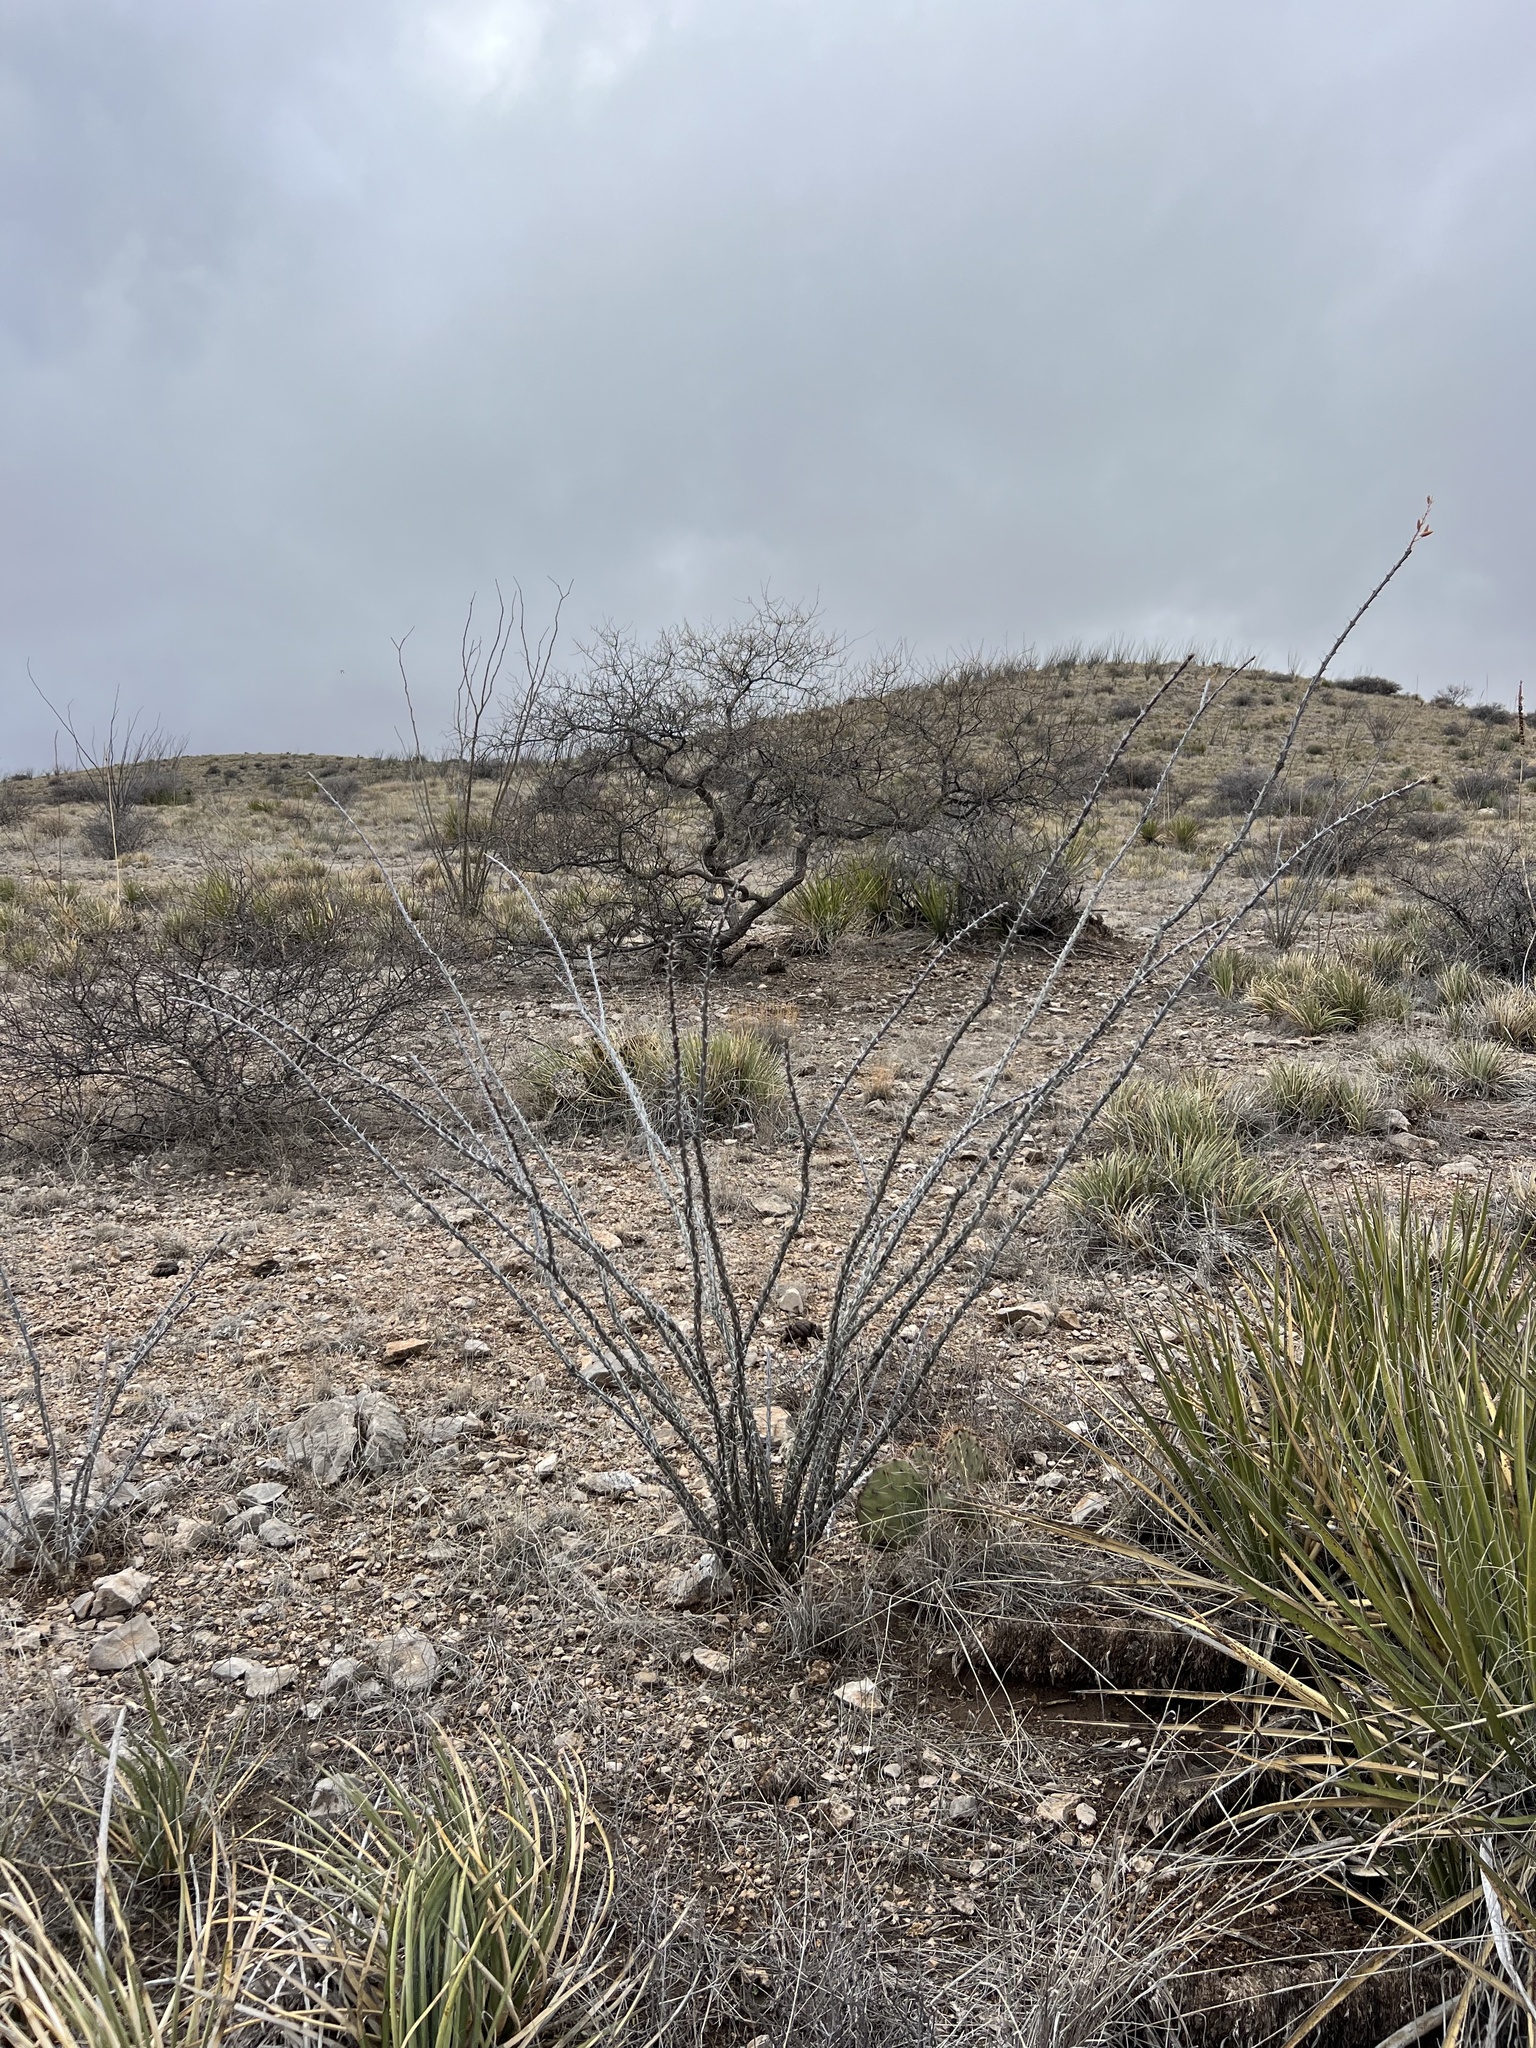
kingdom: Plantae
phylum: Tracheophyta
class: Magnoliopsida
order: Ericales
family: Fouquieriaceae
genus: Fouquieria
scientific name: Fouquieria splendens
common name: Vine-cactus
